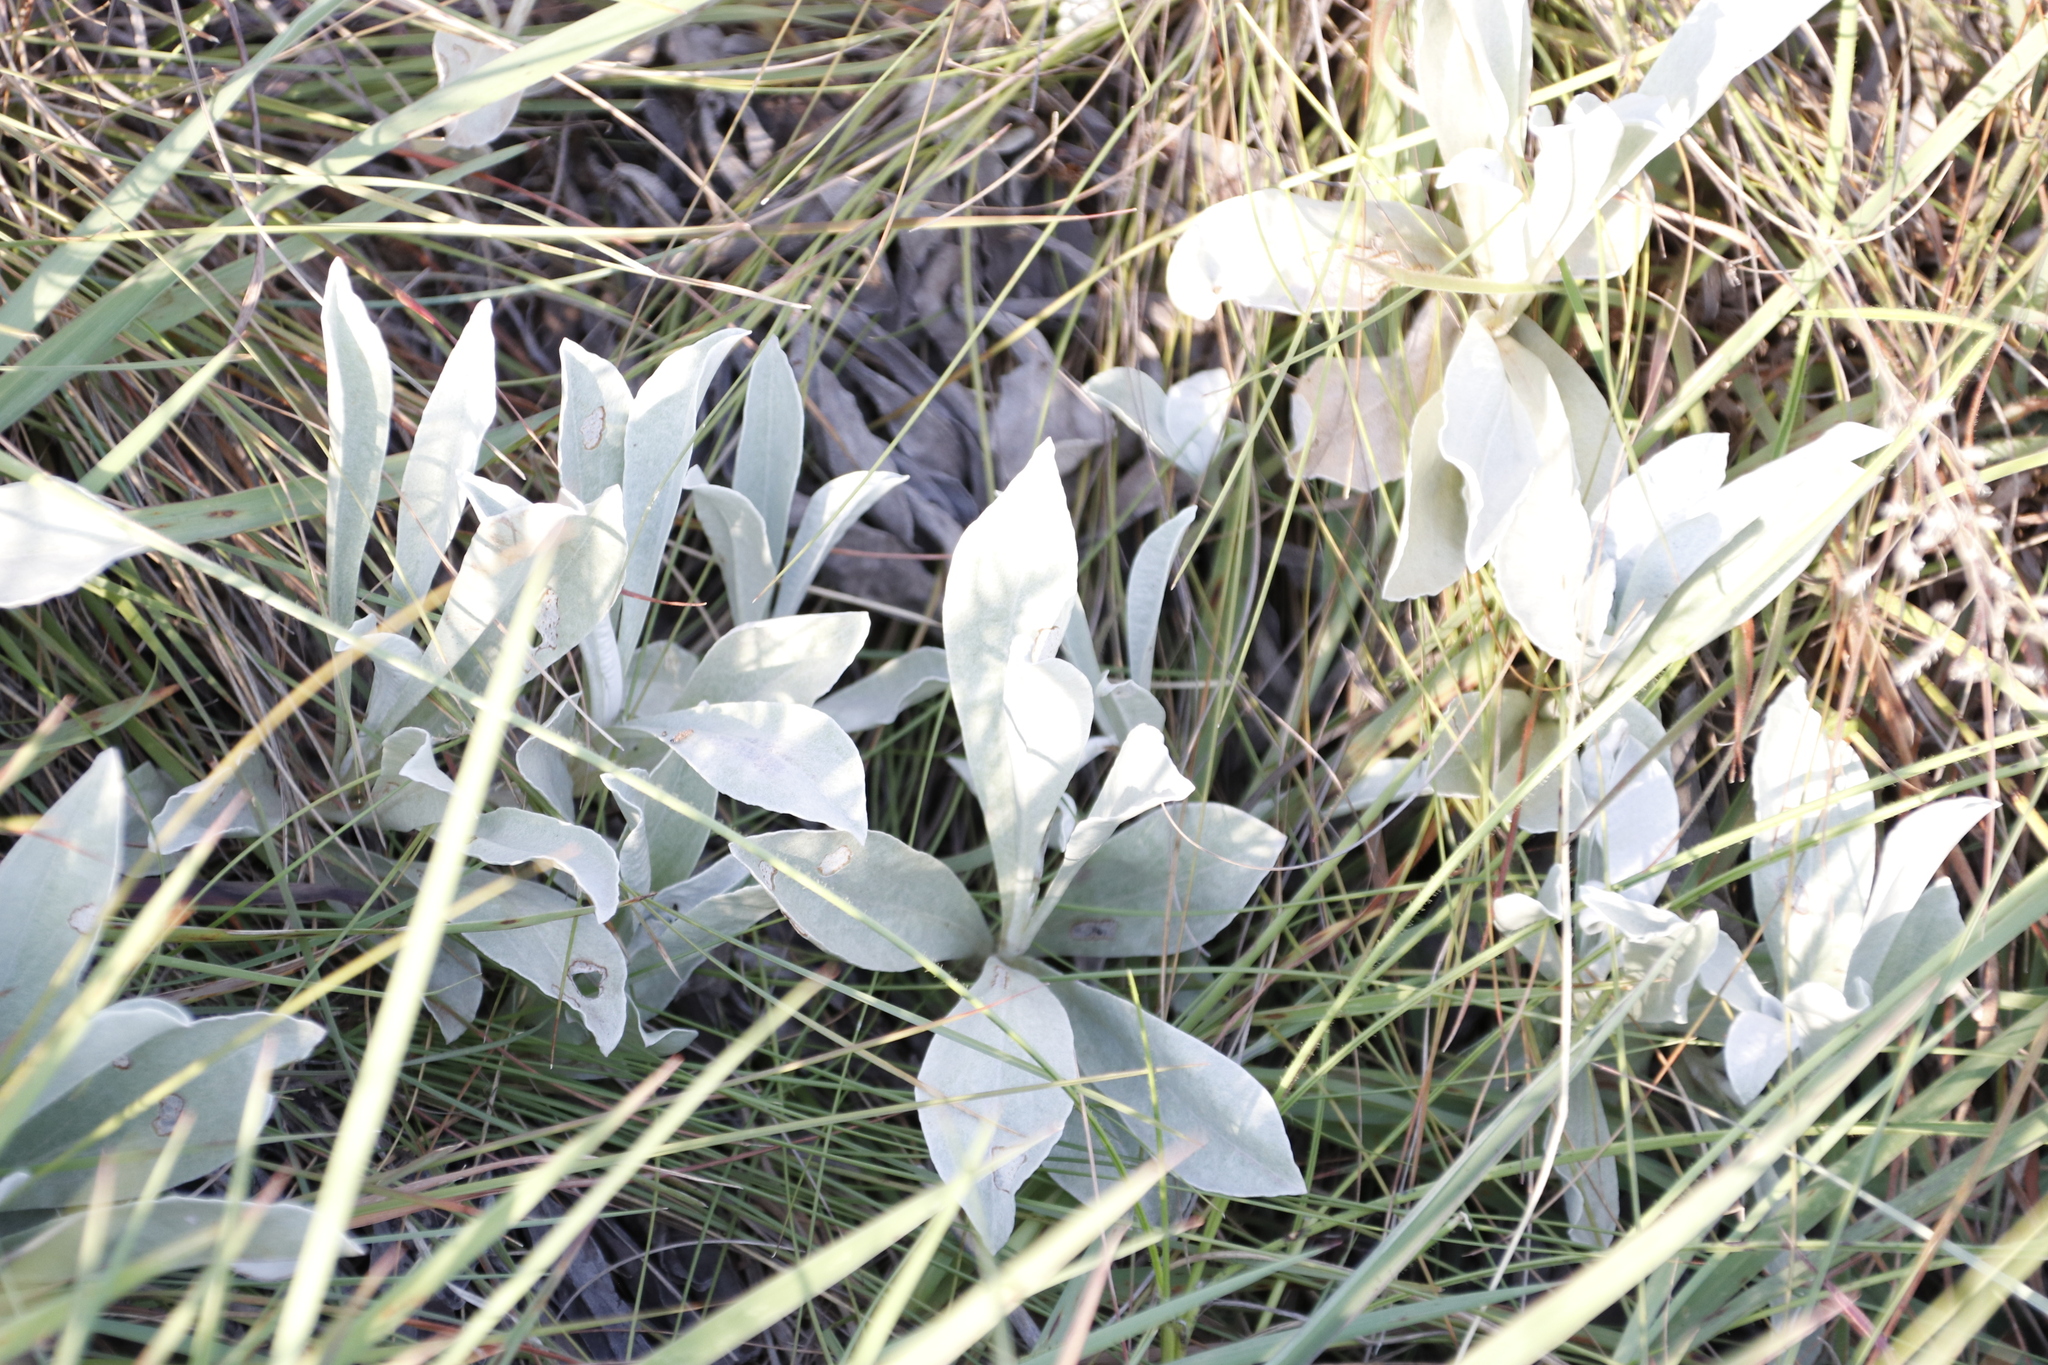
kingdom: Plantae
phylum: Tracheophyta
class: Magnoliopsida
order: Asterales
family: Asteraceae
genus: Helichrysum
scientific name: Helichrysum oreophilum
